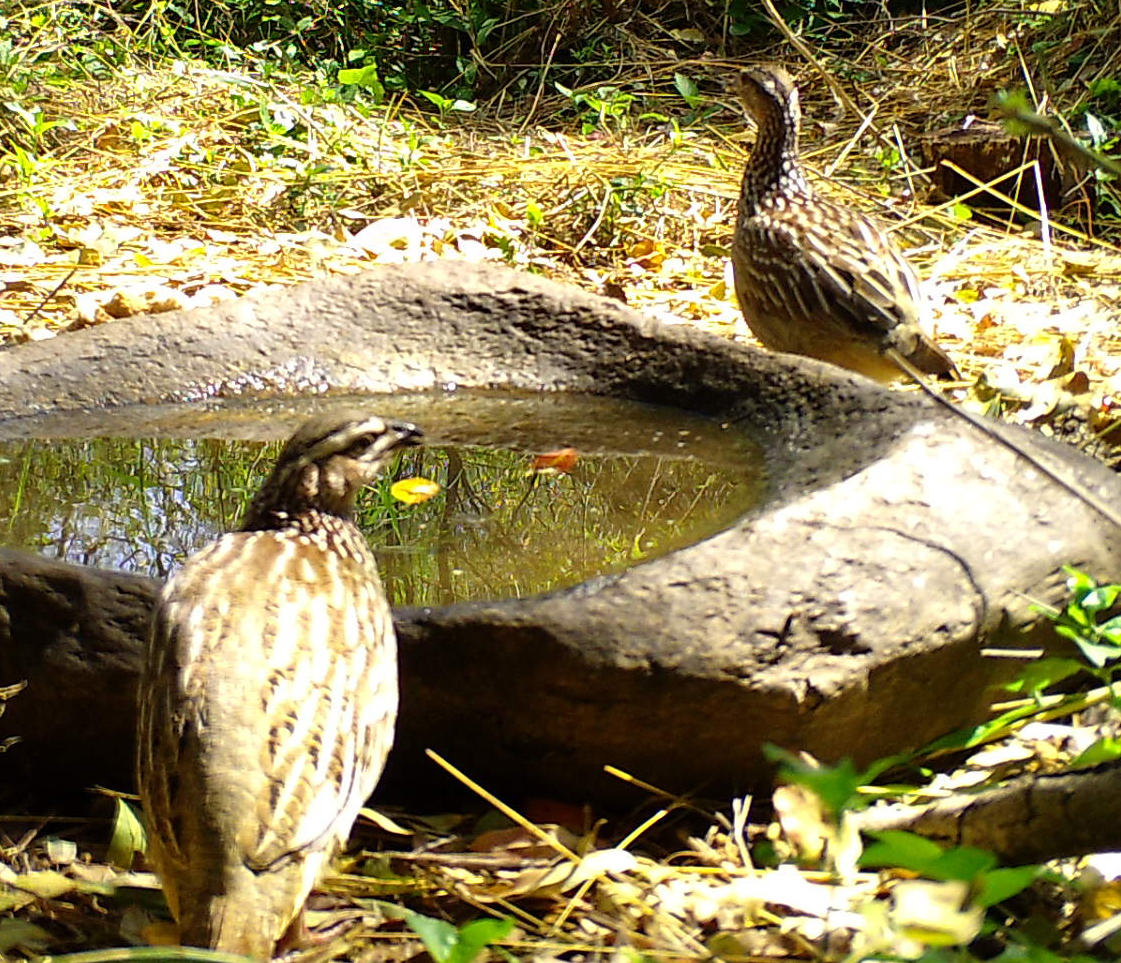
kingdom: Animalia
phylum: Chordata
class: Aves
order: Galliformes
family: Phasianidae
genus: Ortygornis
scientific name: Ortygornis sephaena
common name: Crested francolin
